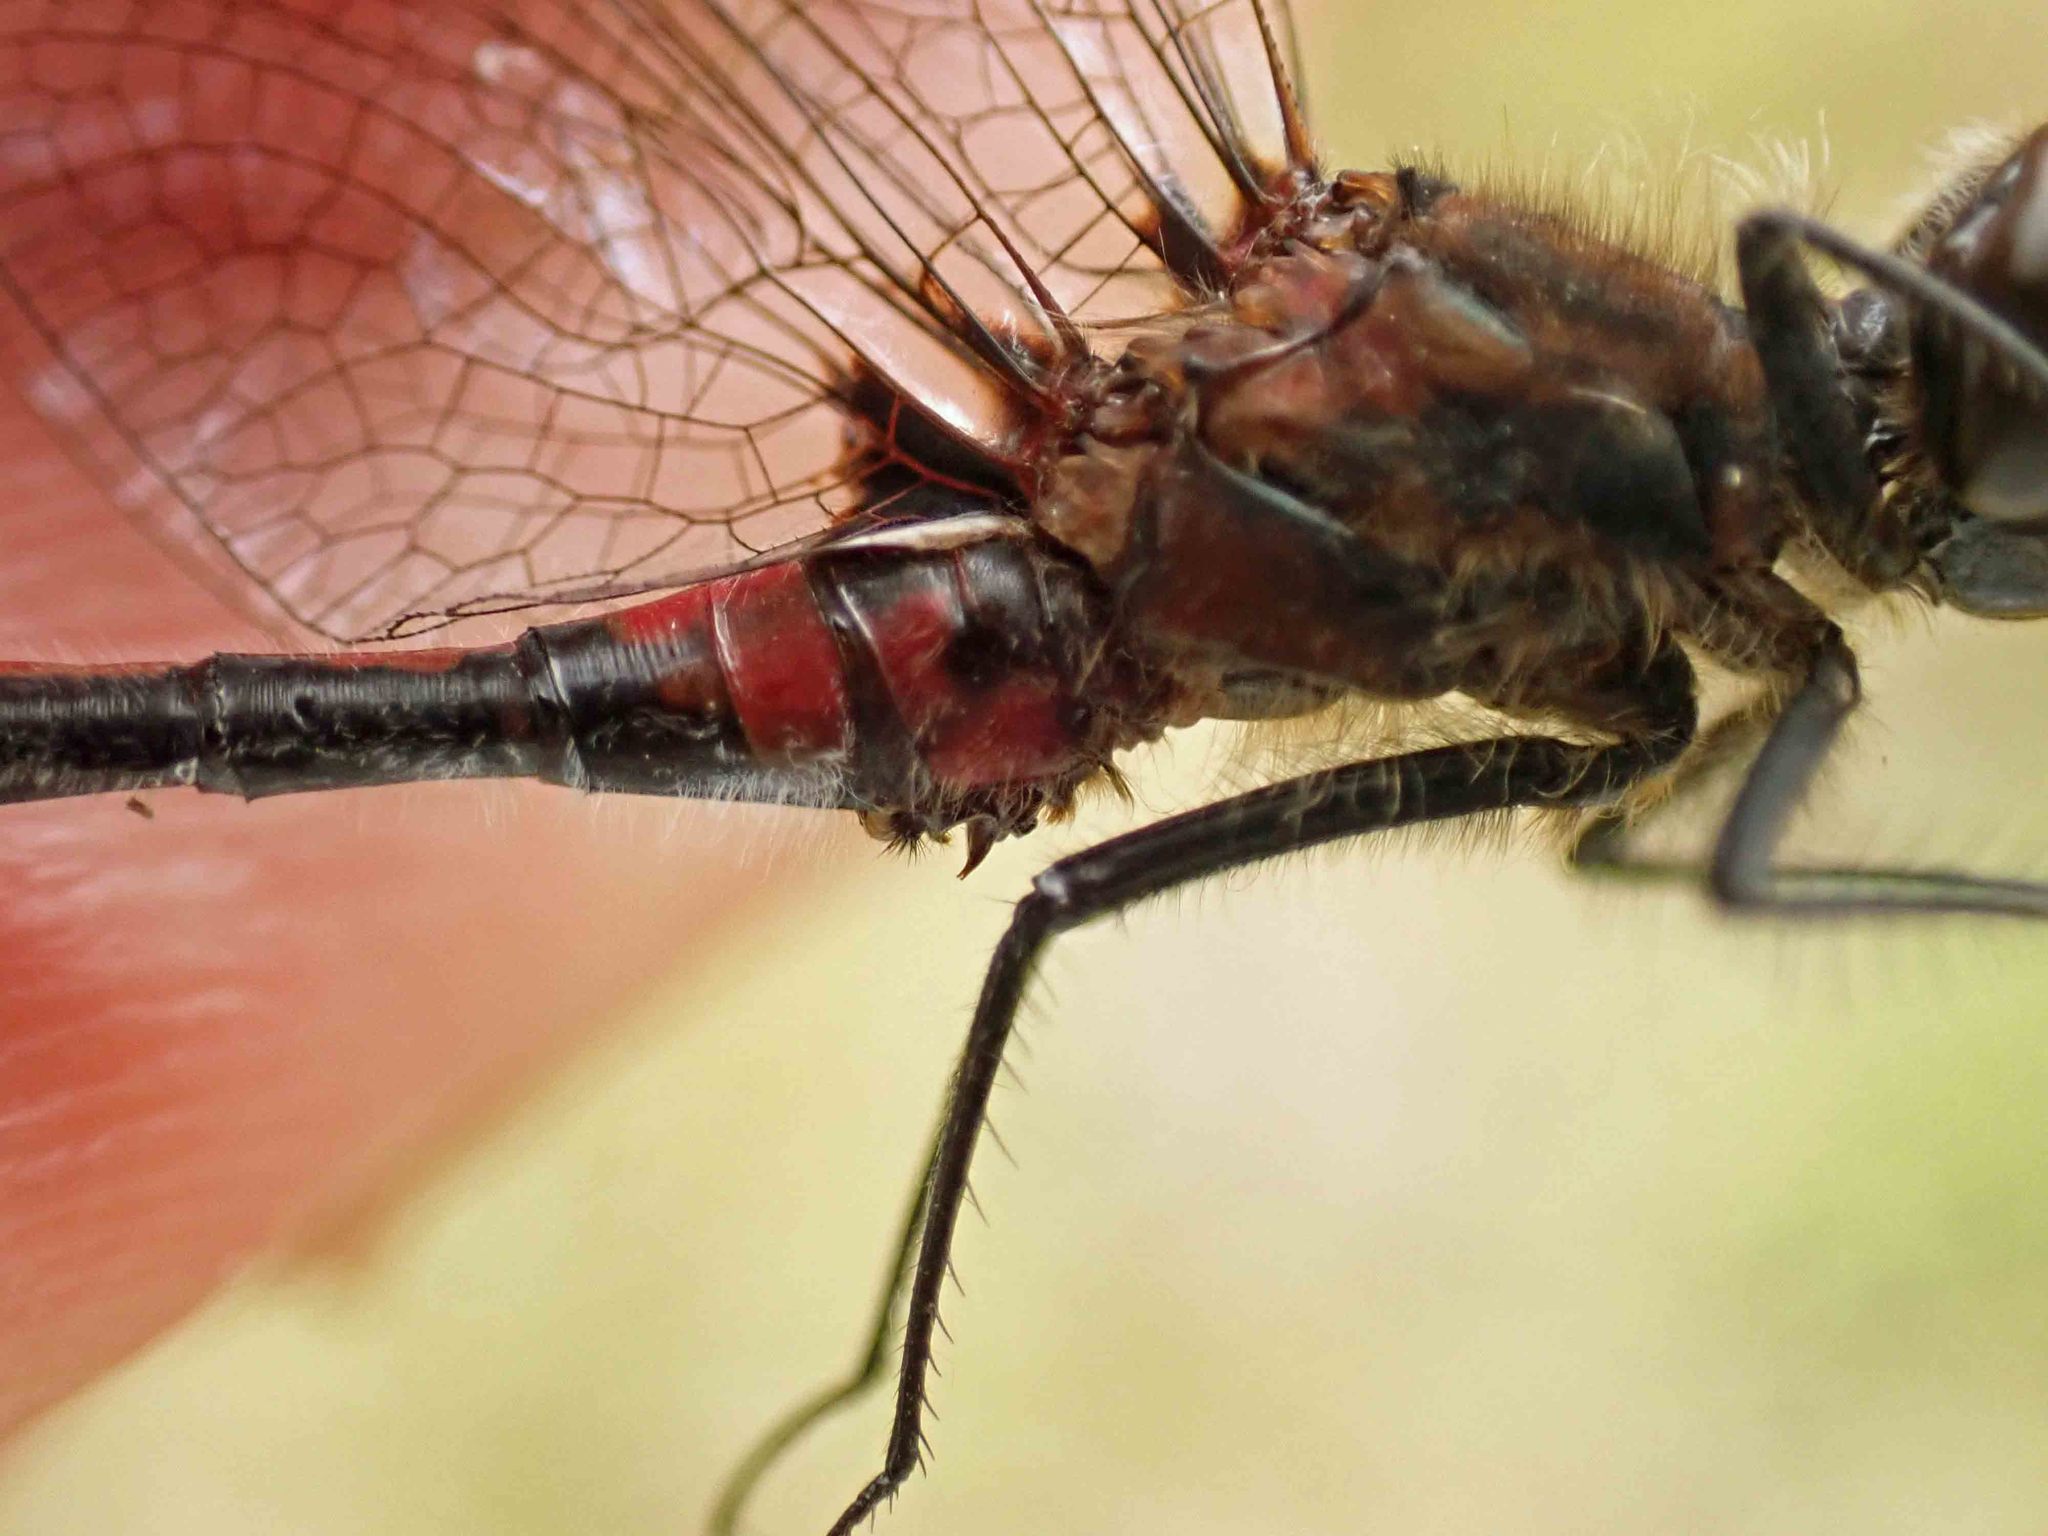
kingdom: Animalia
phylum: Arthropoda
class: Insecta
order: Odonata
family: Libellulidae
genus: Leucorrhinia
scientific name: Leucorrhinia hudsonica
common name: Hudsonian whiteface
